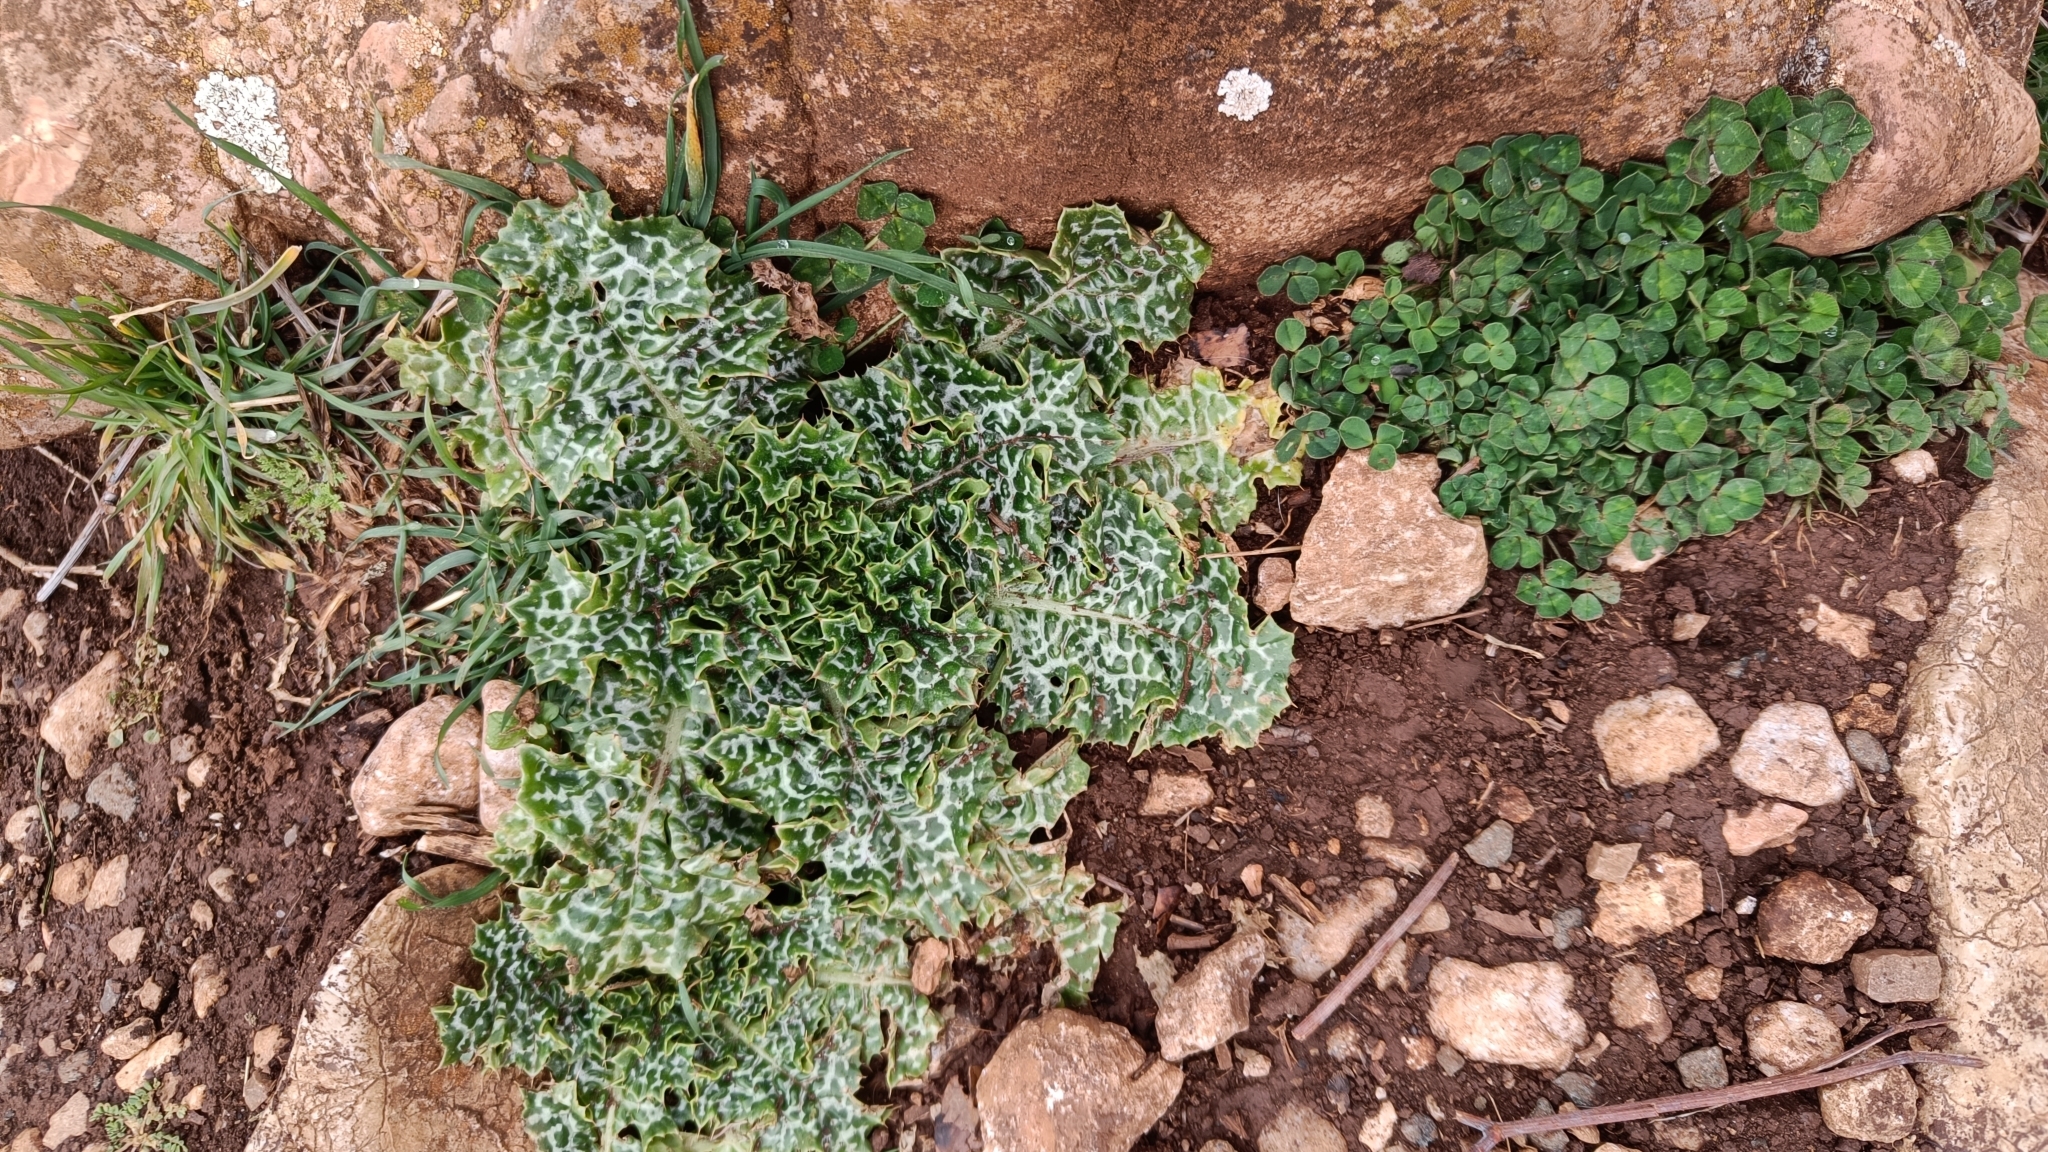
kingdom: Plantae
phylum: Tracheophyta
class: Magnoliopsida
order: Asterales
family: Asteraceae
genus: Silybum
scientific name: Silybum marianum
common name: Milk thistle
